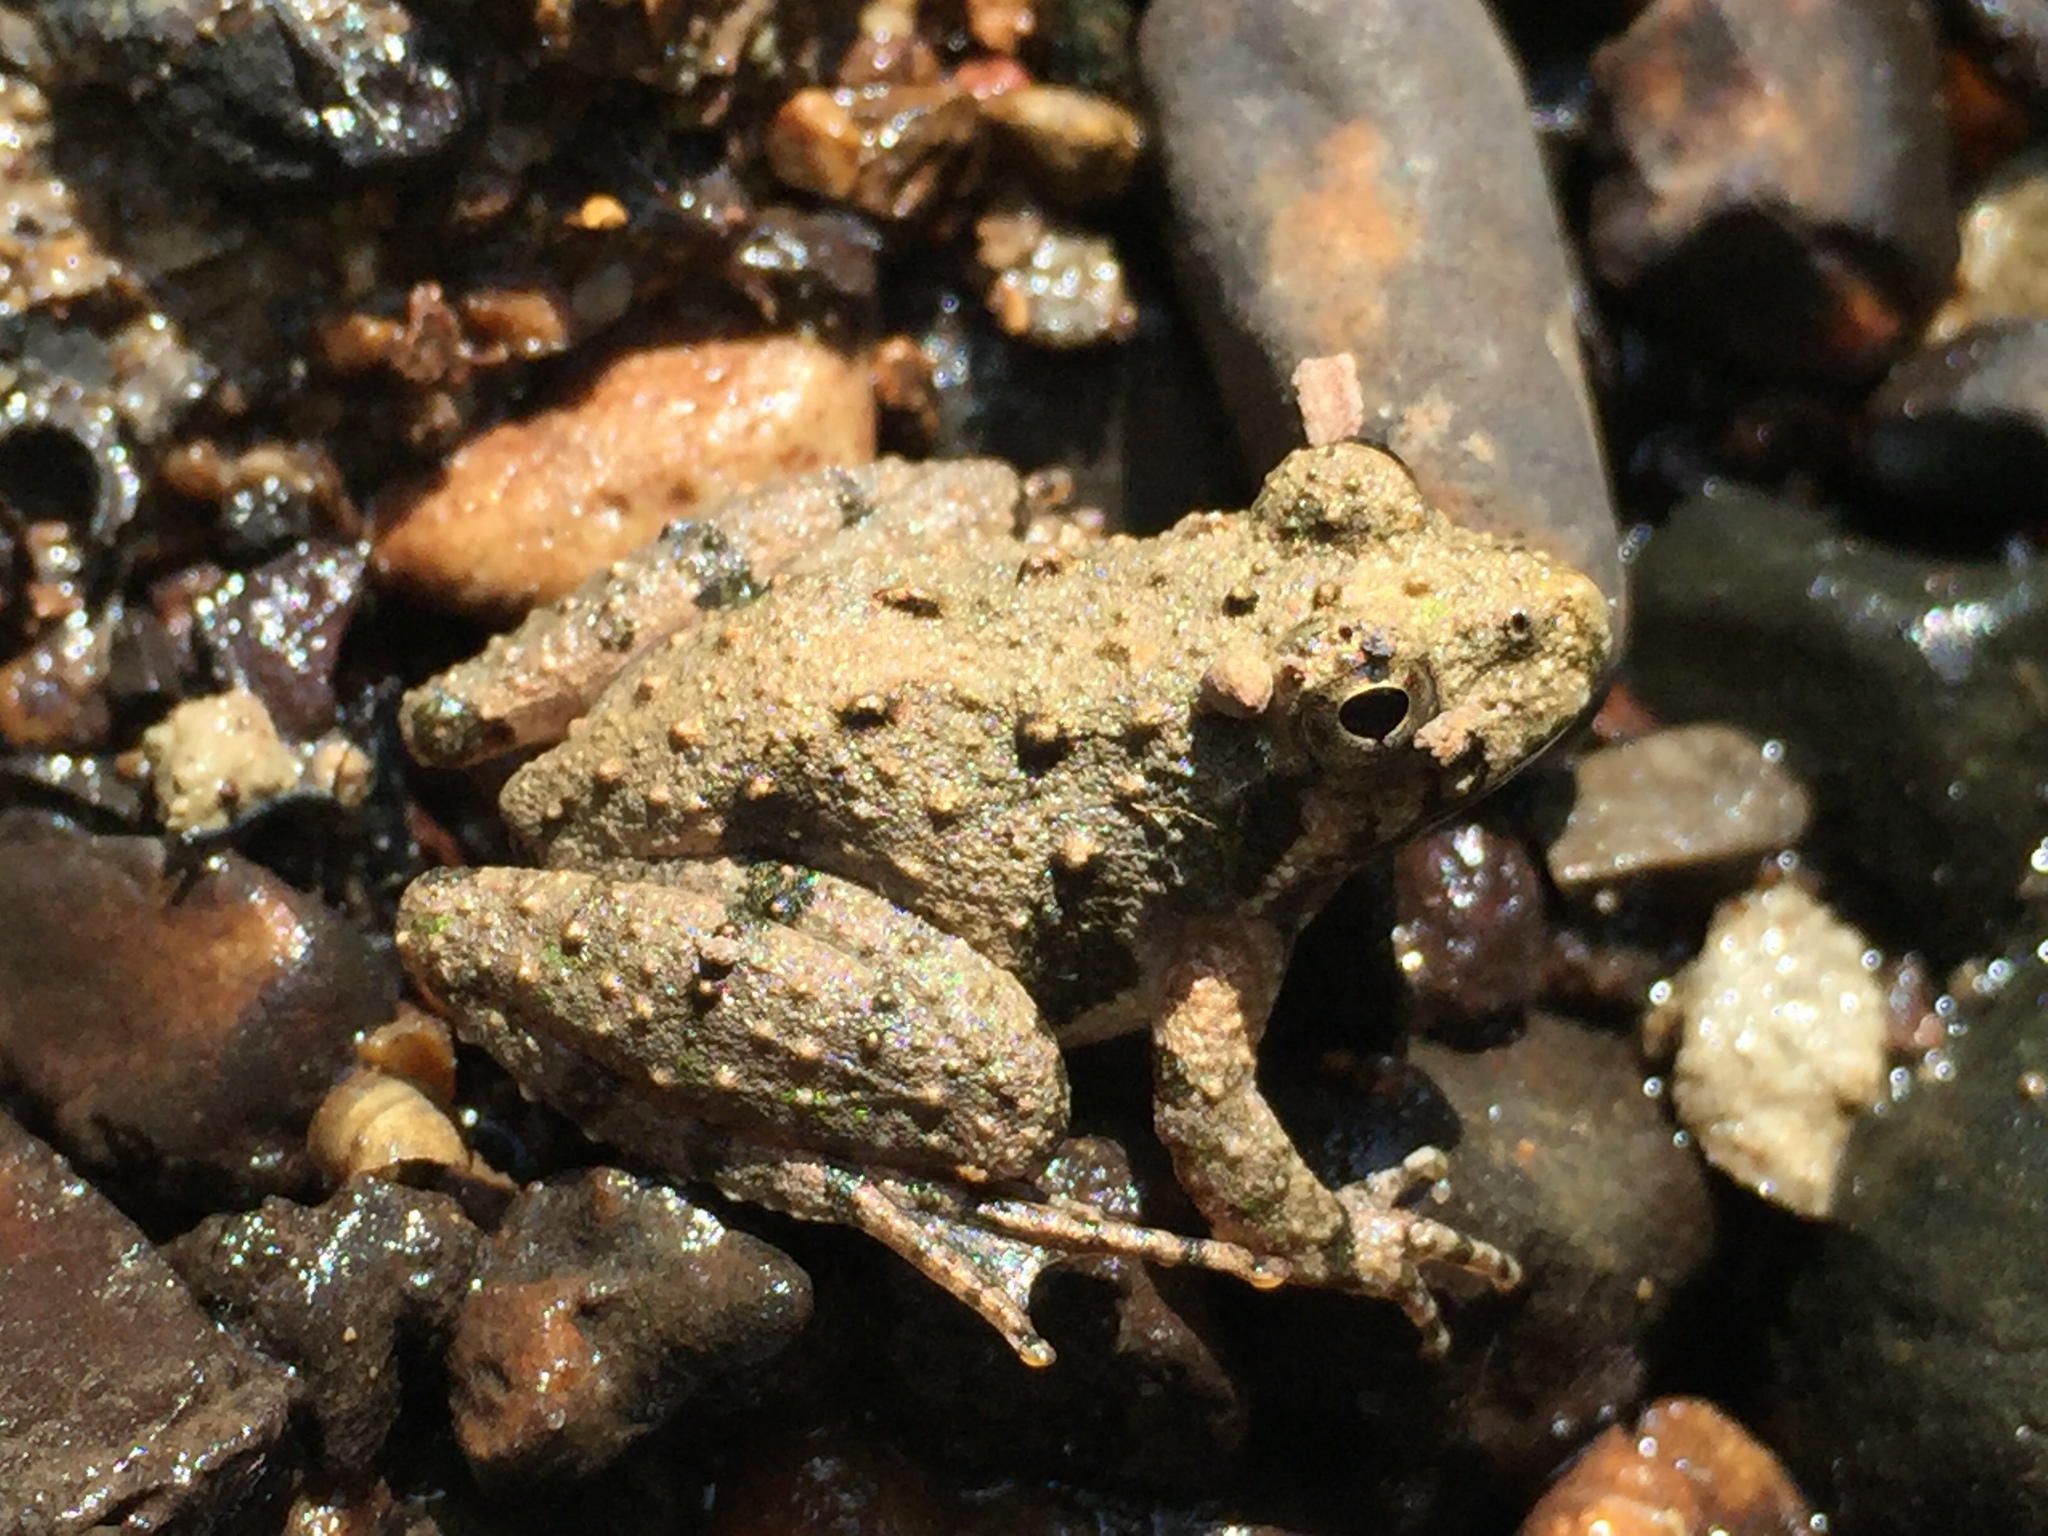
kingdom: Animalia
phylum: Chordata
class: Amphibia
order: Anura
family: Hylidae
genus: Acris
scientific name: Acris crepitans
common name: Northern cricket frog
